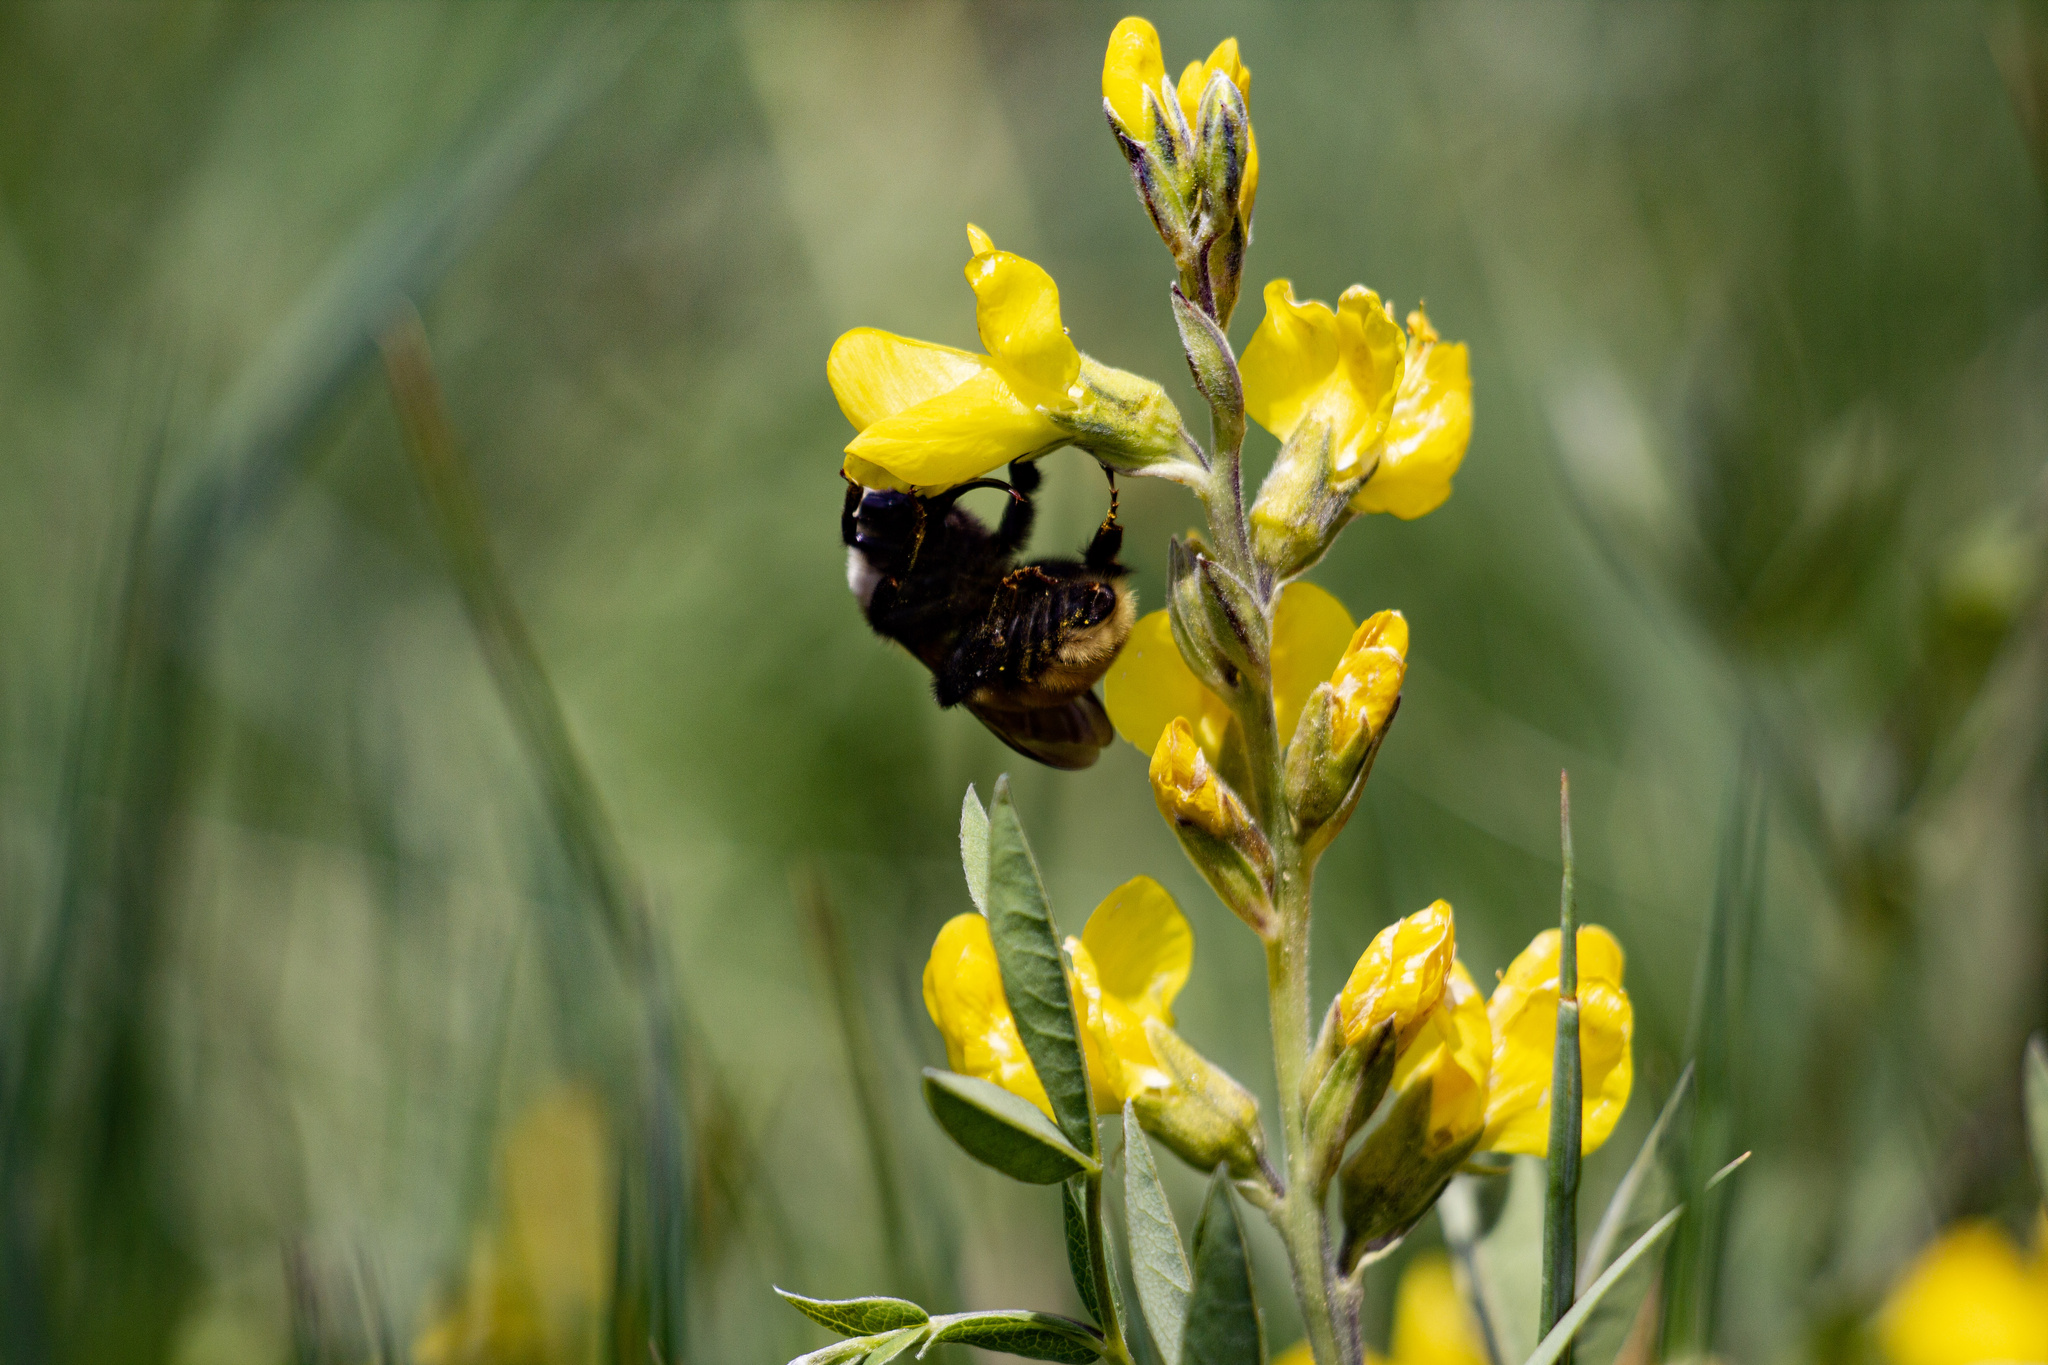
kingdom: Animalia
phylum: Arthropoda
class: Insecta
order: Hymenoptera
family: Apidae
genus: Bombus
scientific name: Bombus appositus
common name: White-shouldered bumble bee
